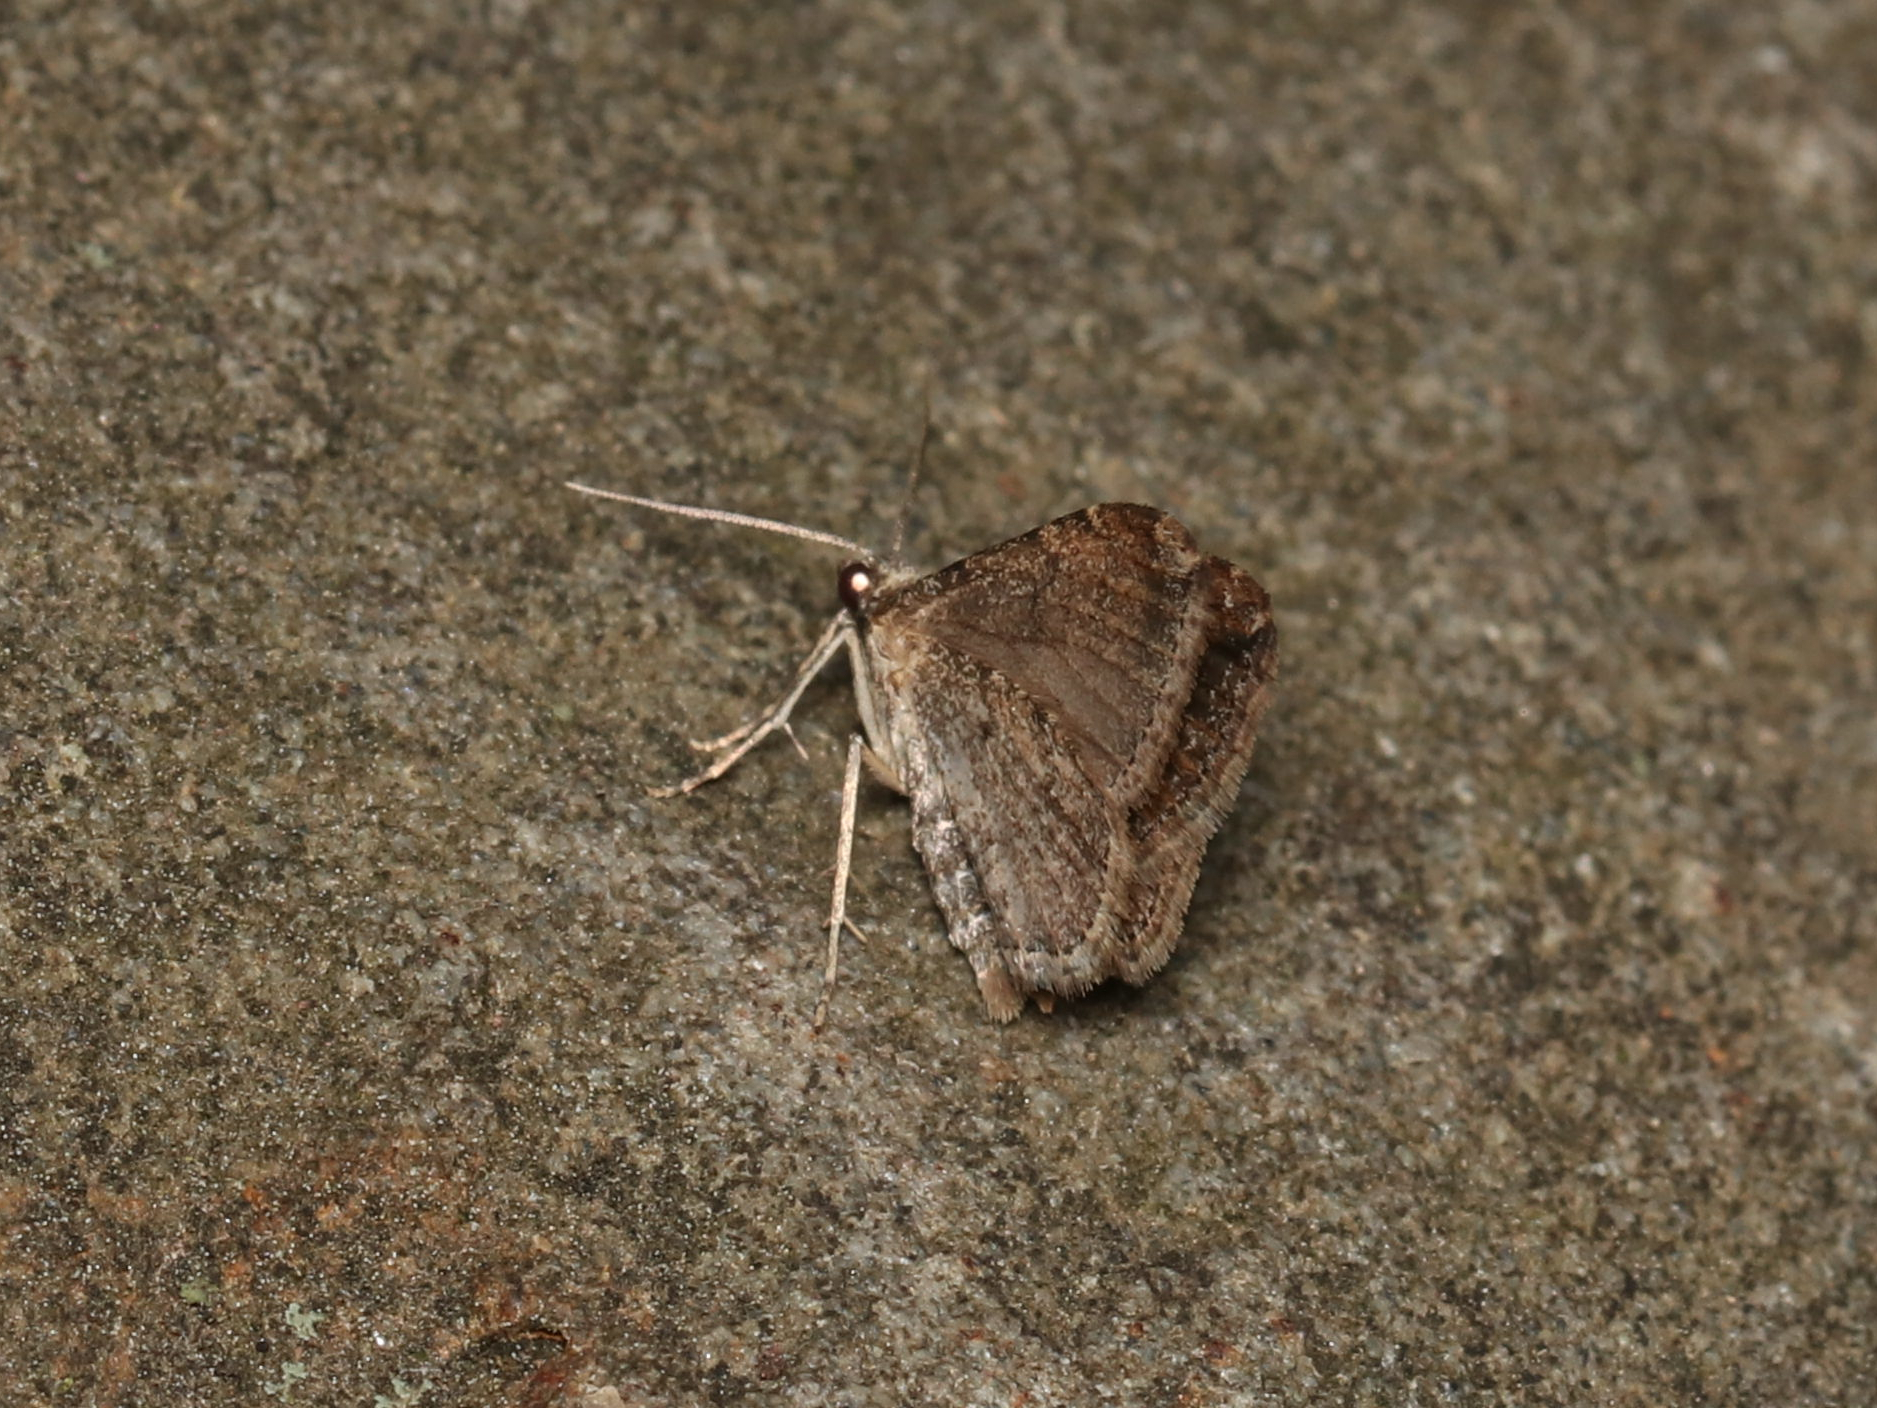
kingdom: Animalia
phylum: Arthropoda
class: Insecta
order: Lepidoptera
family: Geometridae
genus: Orthonama
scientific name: Orthonama obstipata
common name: The gem
